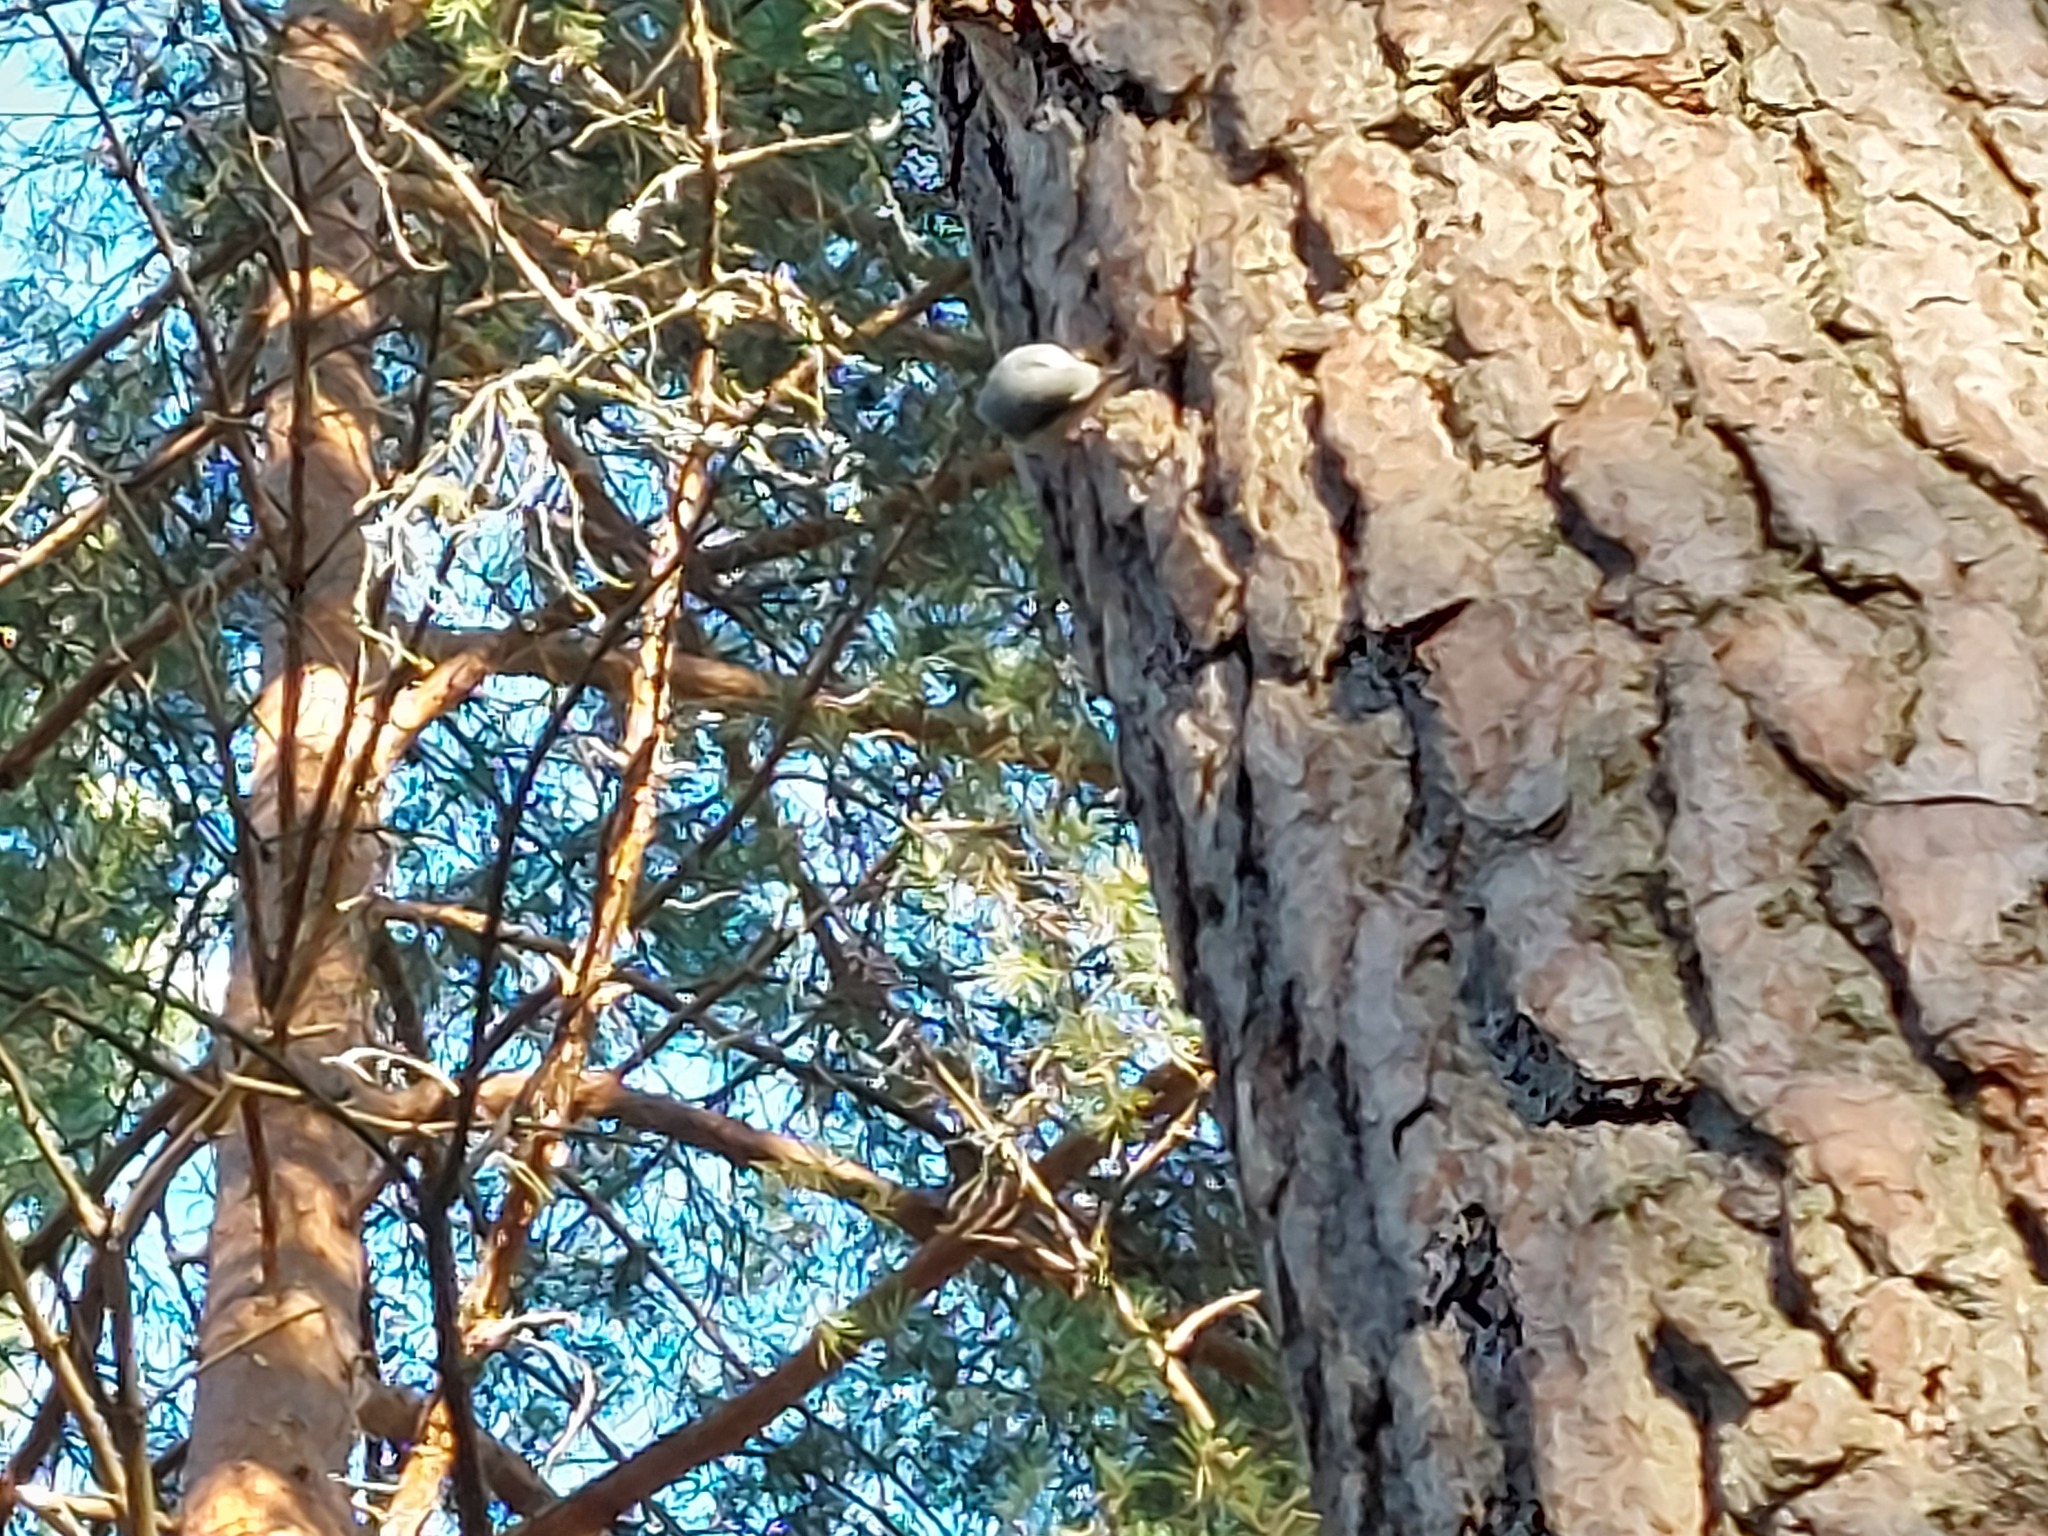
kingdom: Animalia
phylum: Chordata
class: Aves
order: Passeriformes
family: Sittidae
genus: Sitta
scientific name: Sitta europaea
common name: Eurasian nuthatch
